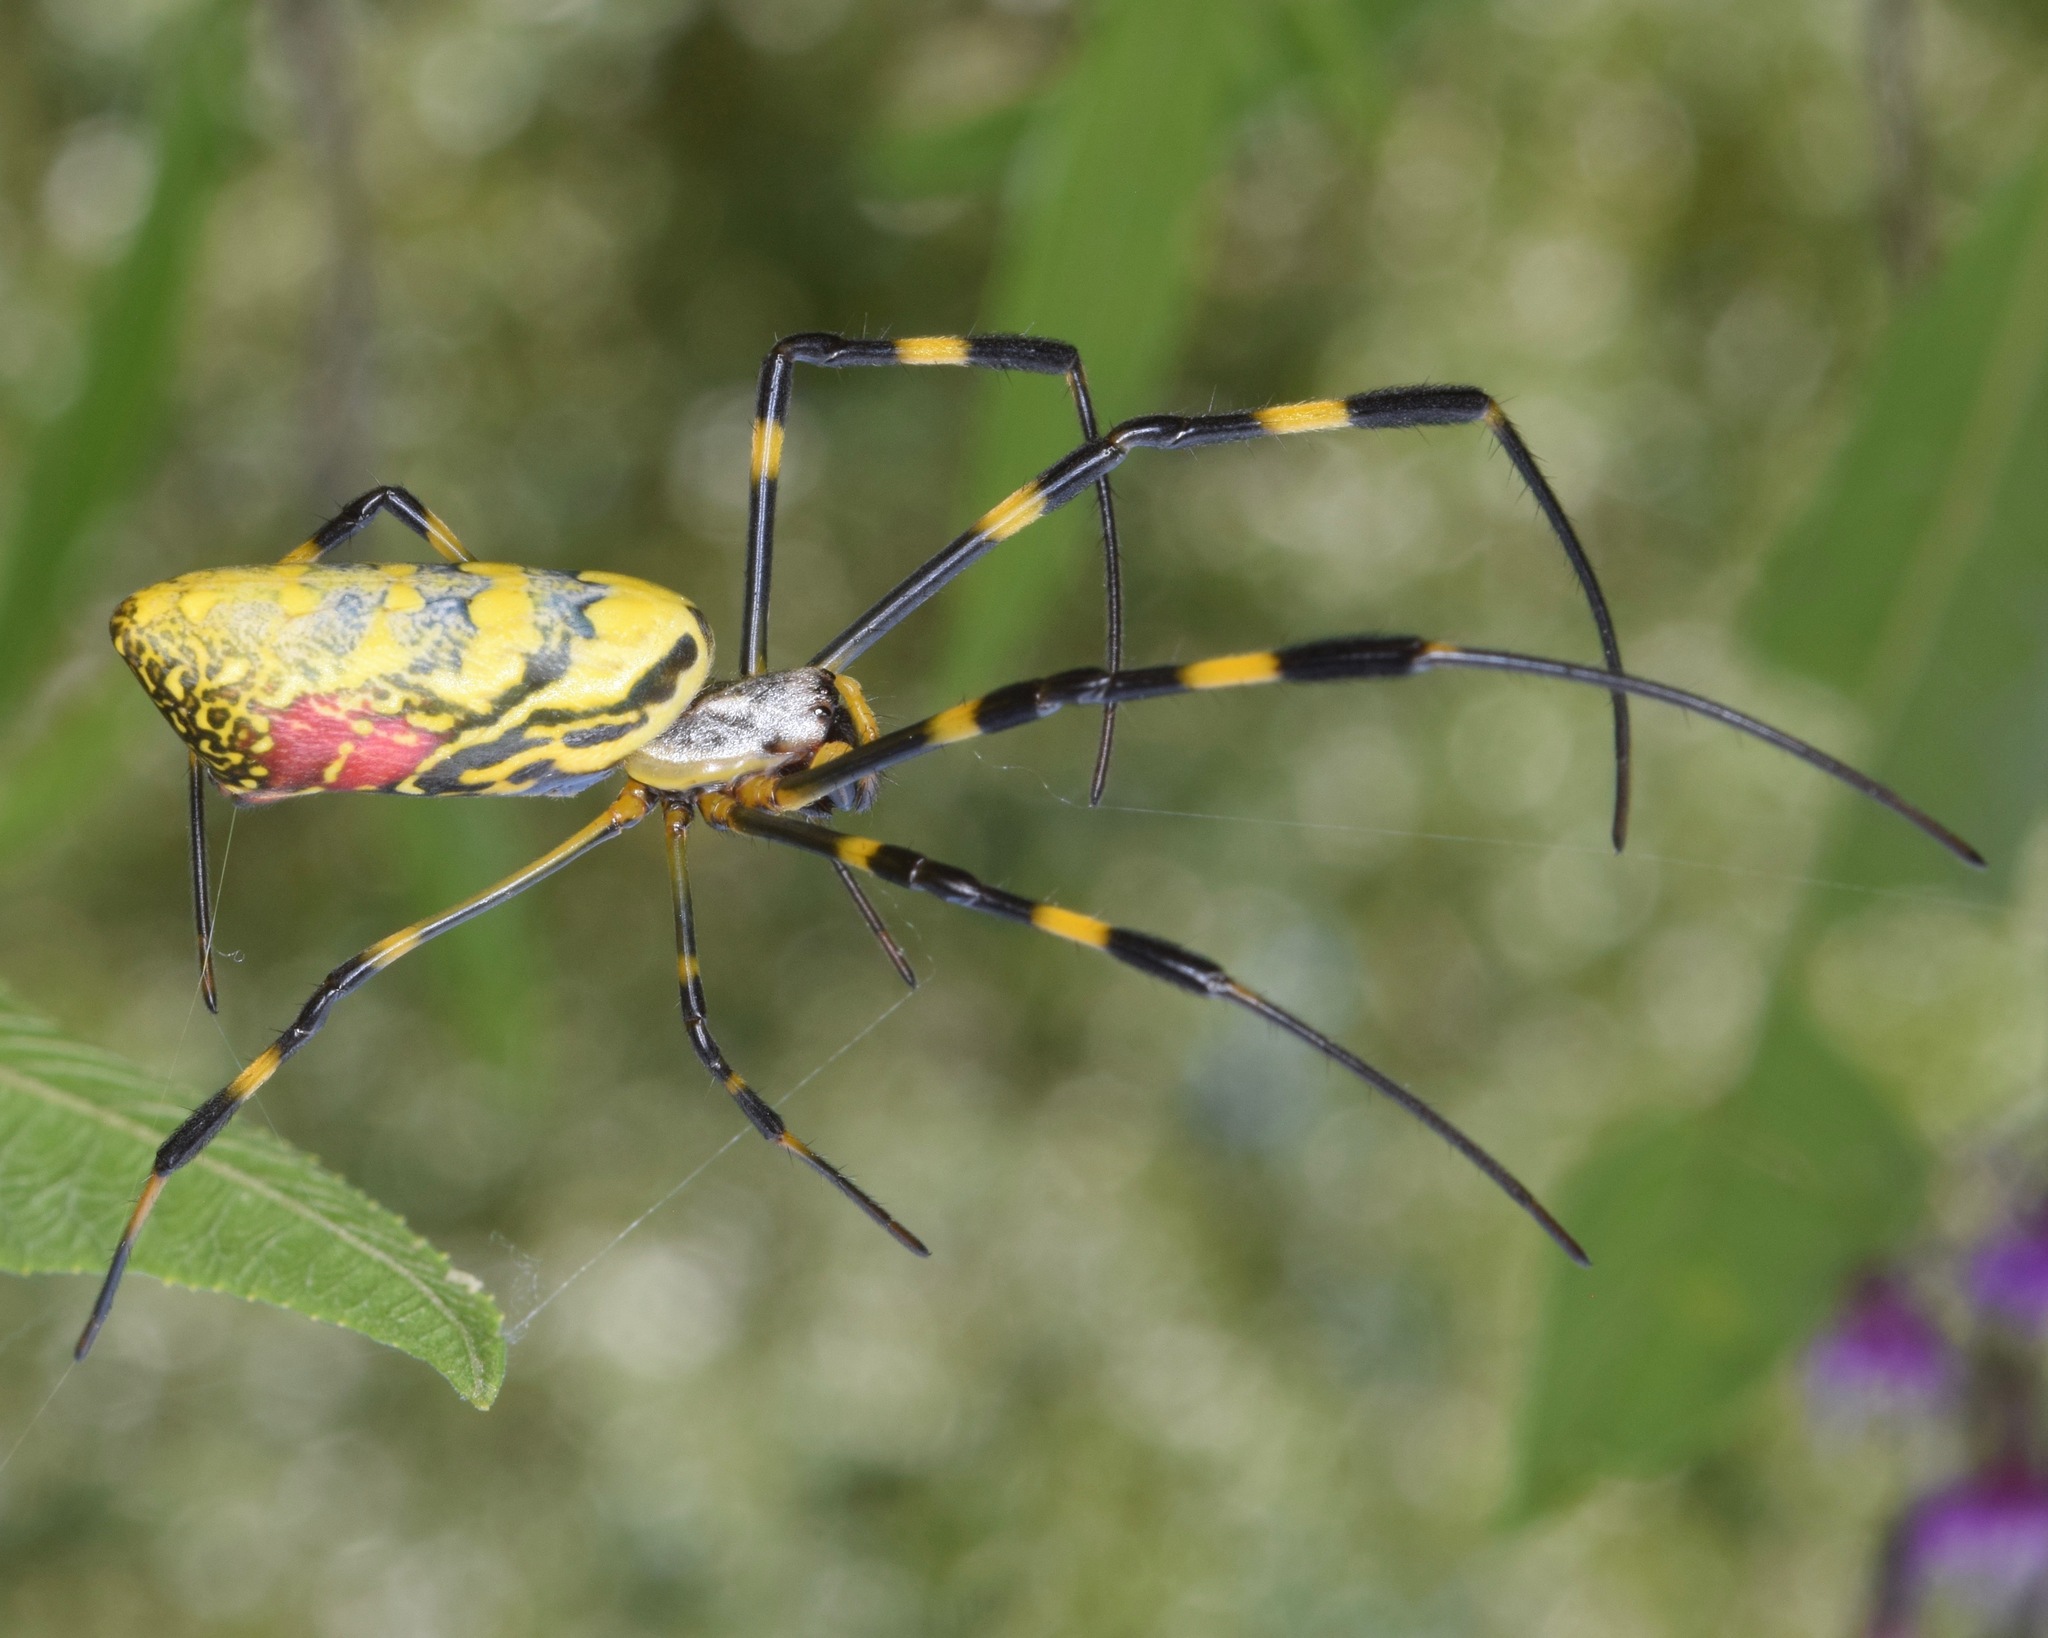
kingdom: Animalia
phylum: Arthropoda
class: Arachnida
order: Araneae
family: Araneidae
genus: Trichonephila
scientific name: Trichonephila clavata
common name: Jorō spider
